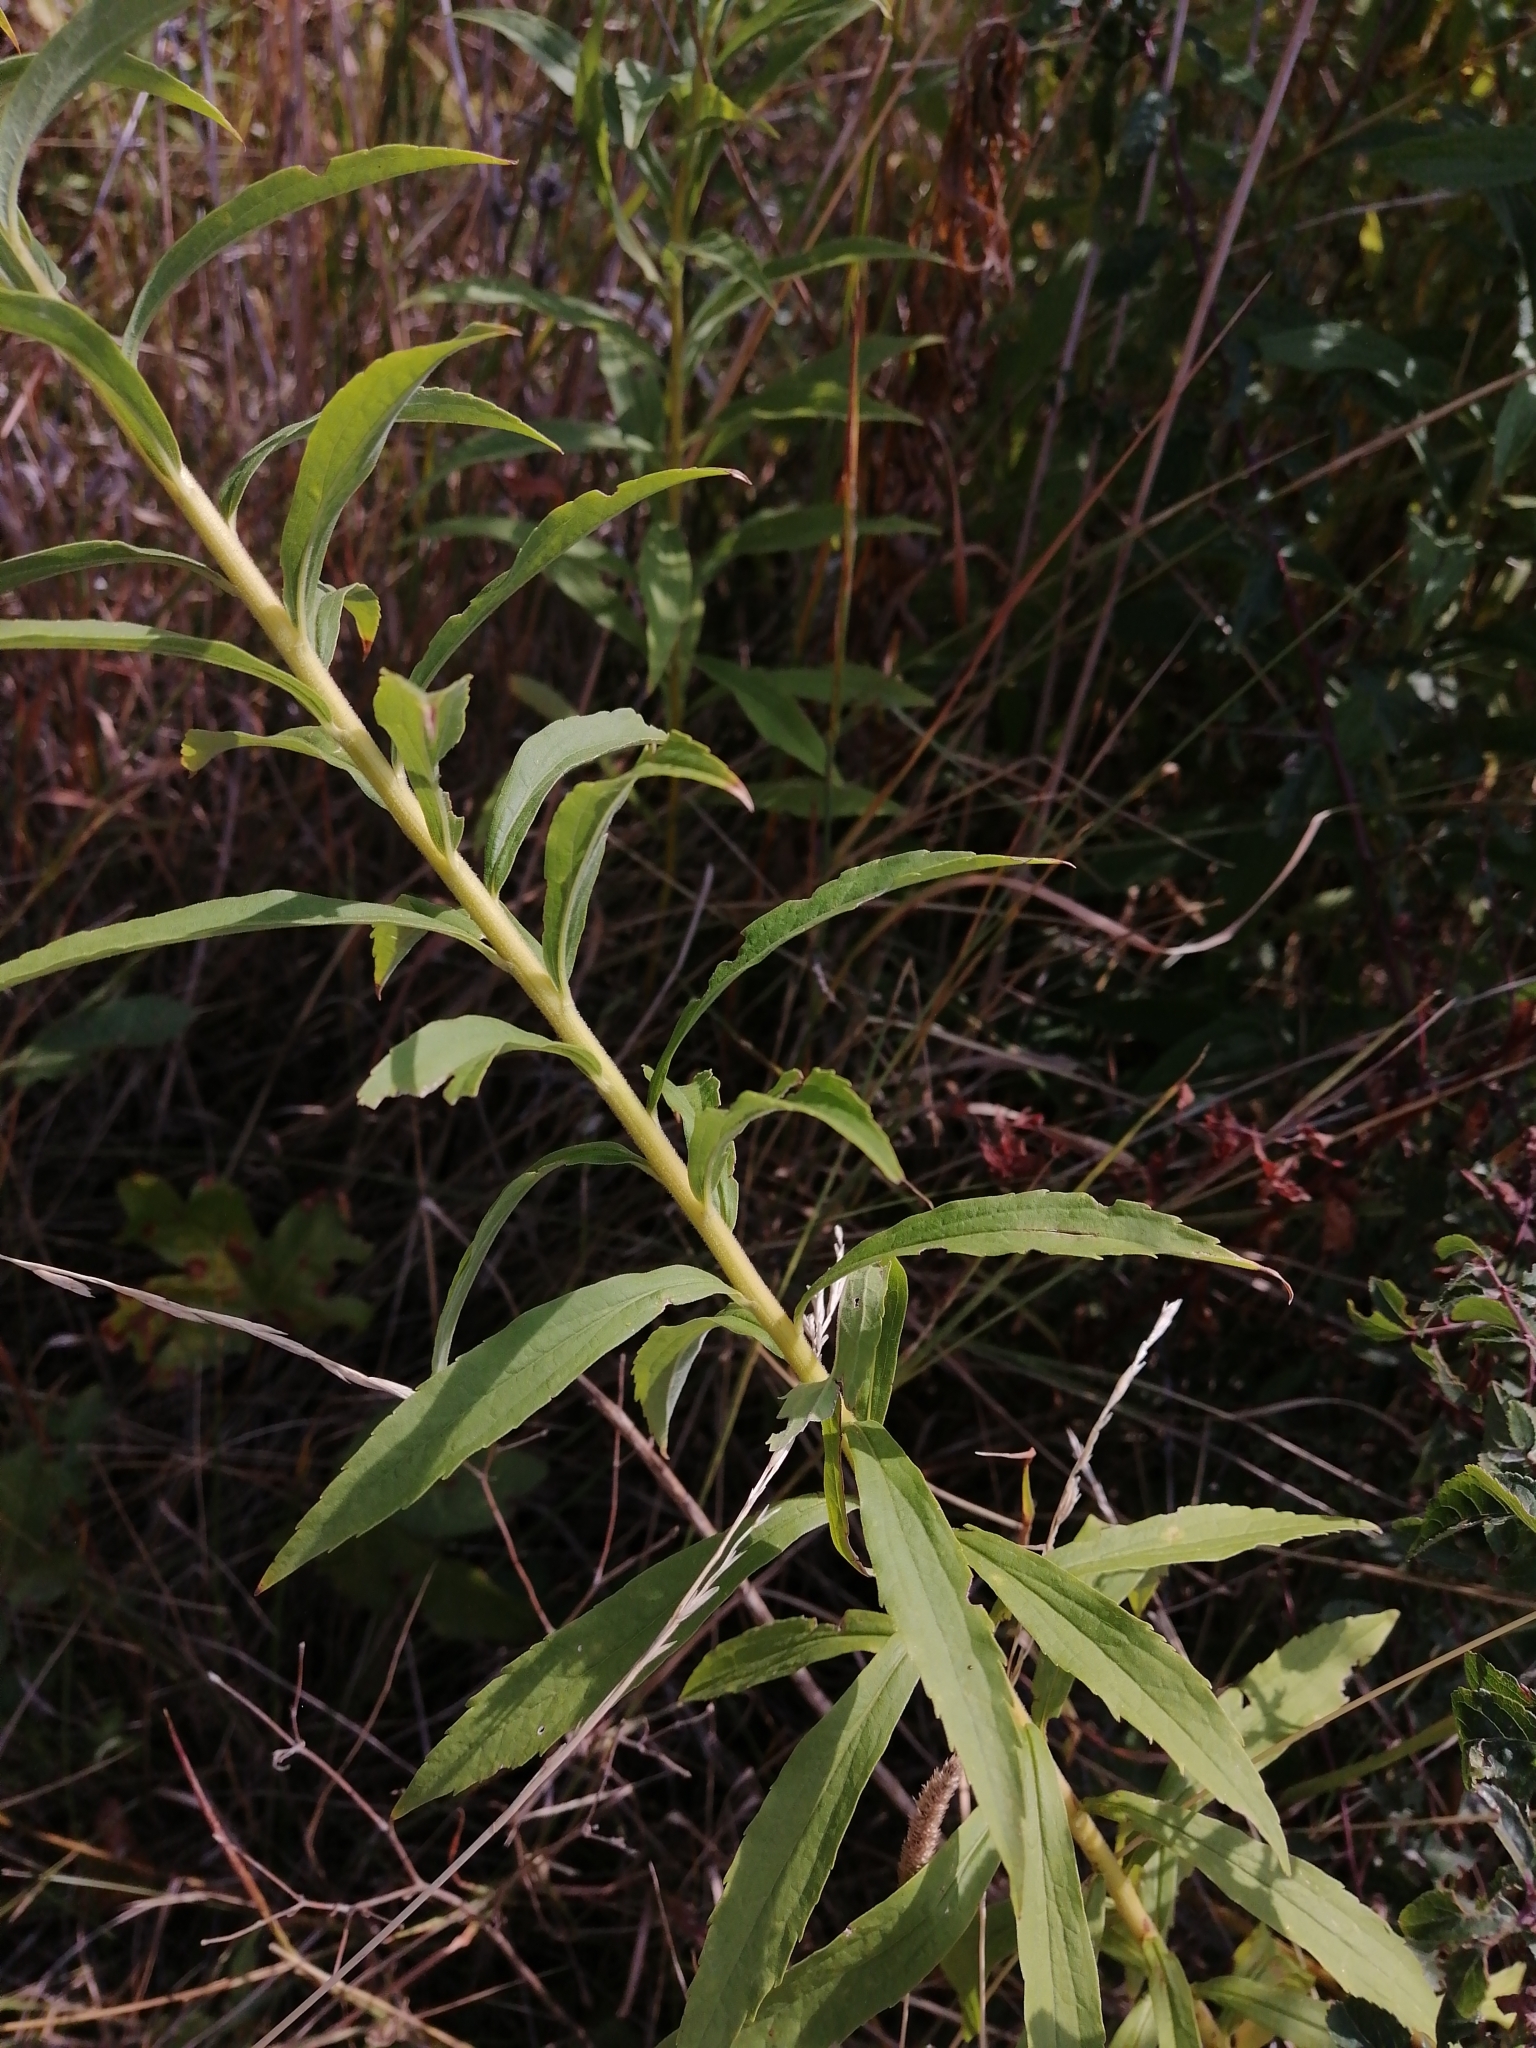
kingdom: Plantae
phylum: Tracheophyta
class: Magnoliopsida
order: Asterales
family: Asteraceae
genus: Solidago
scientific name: Solidago canadensis
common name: Canada goldenrod
